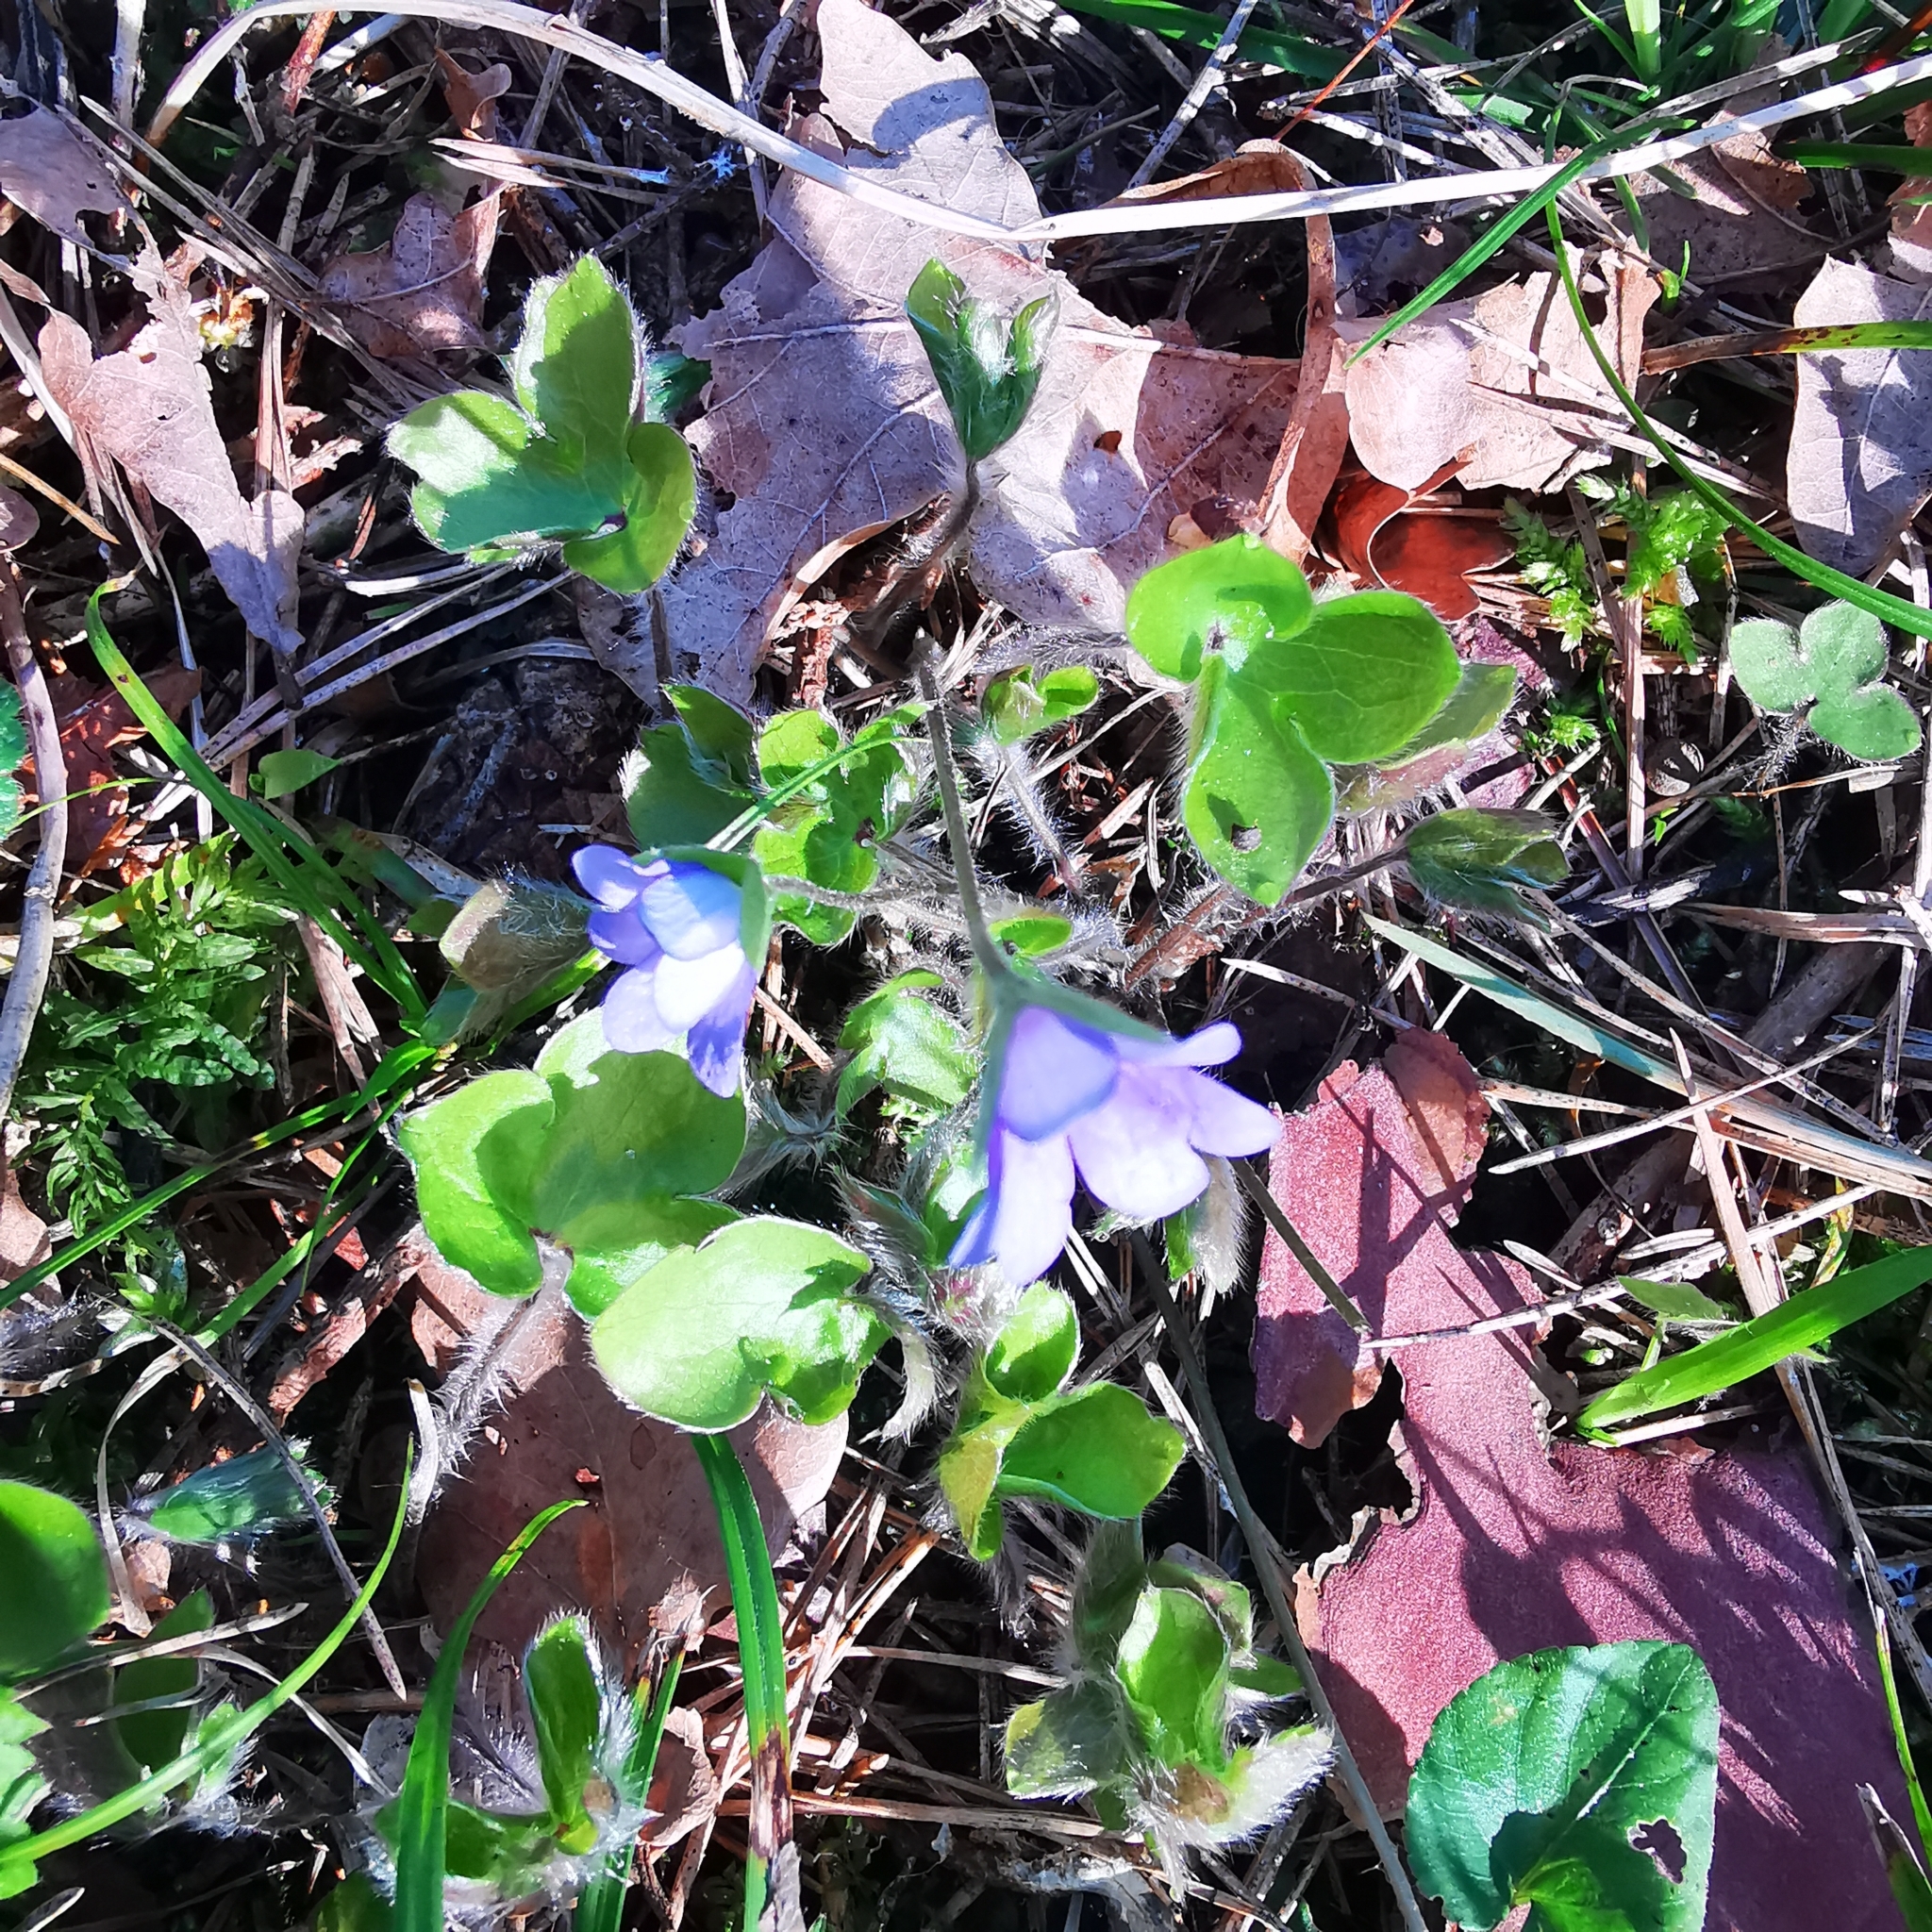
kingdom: Plantae
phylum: Tracheophyta
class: Magnoliopsida
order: Ranunculales
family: Ranunculaceae
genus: Hepatica
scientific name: Hepatica nobilis
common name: Liverleaf
